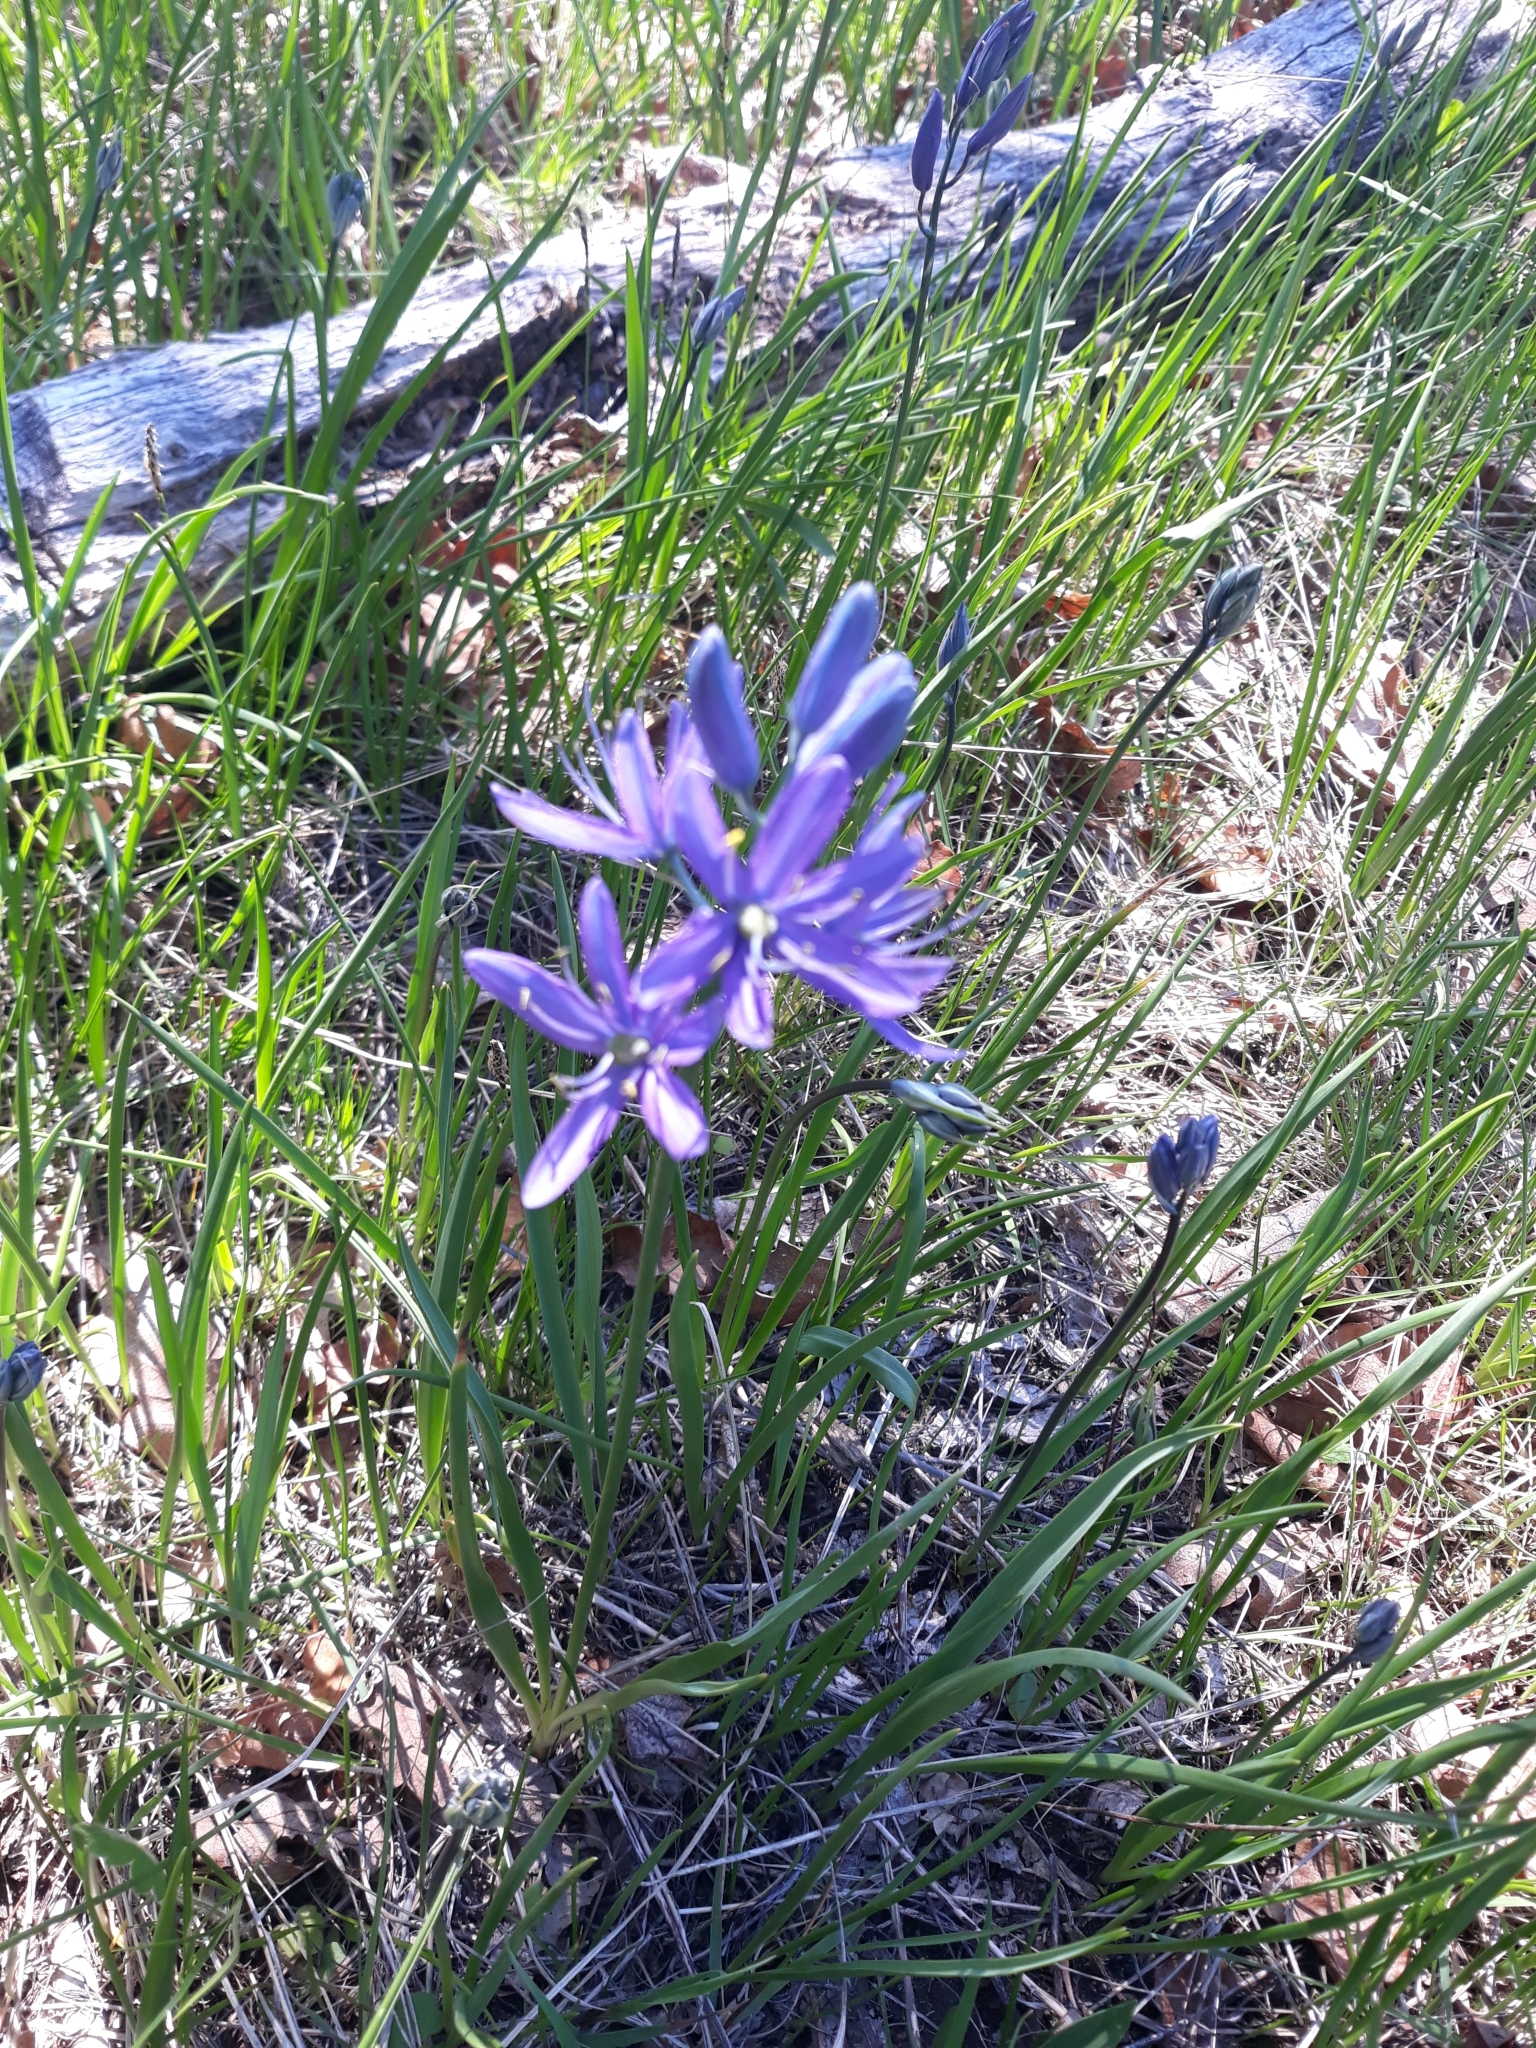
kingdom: Plantae
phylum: Tracheophyta
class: Liliopsida
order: Asparagales
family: Asparagaceae
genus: Camassia
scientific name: Camassia quamash
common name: Common camas
